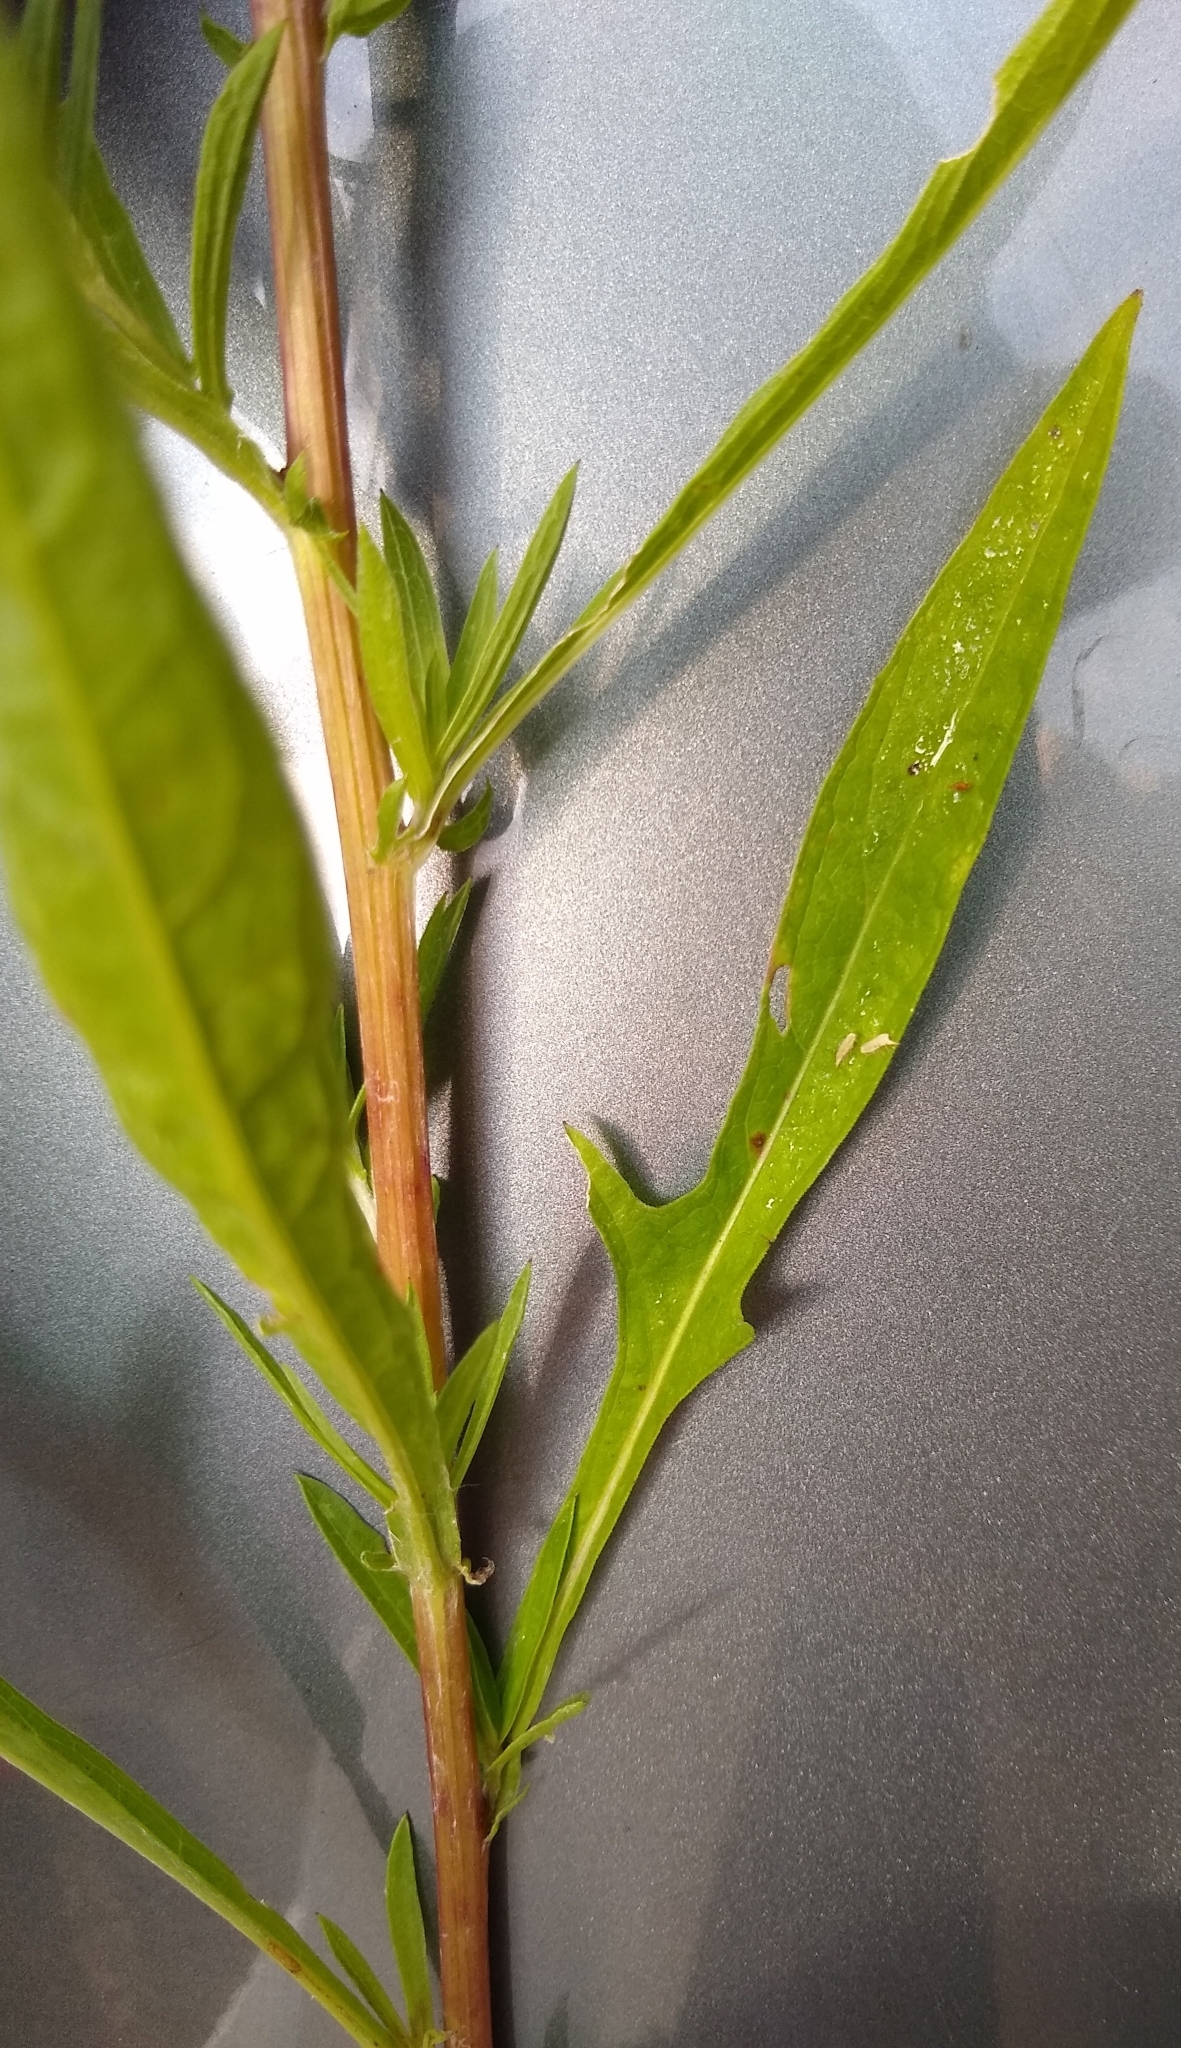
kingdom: Plantae
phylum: Tracheophyta
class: Magnoliopsida
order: Asterales
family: Asteraceae
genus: Centaurea
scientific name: Centaurea stoebe
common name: Spotted knapweed
